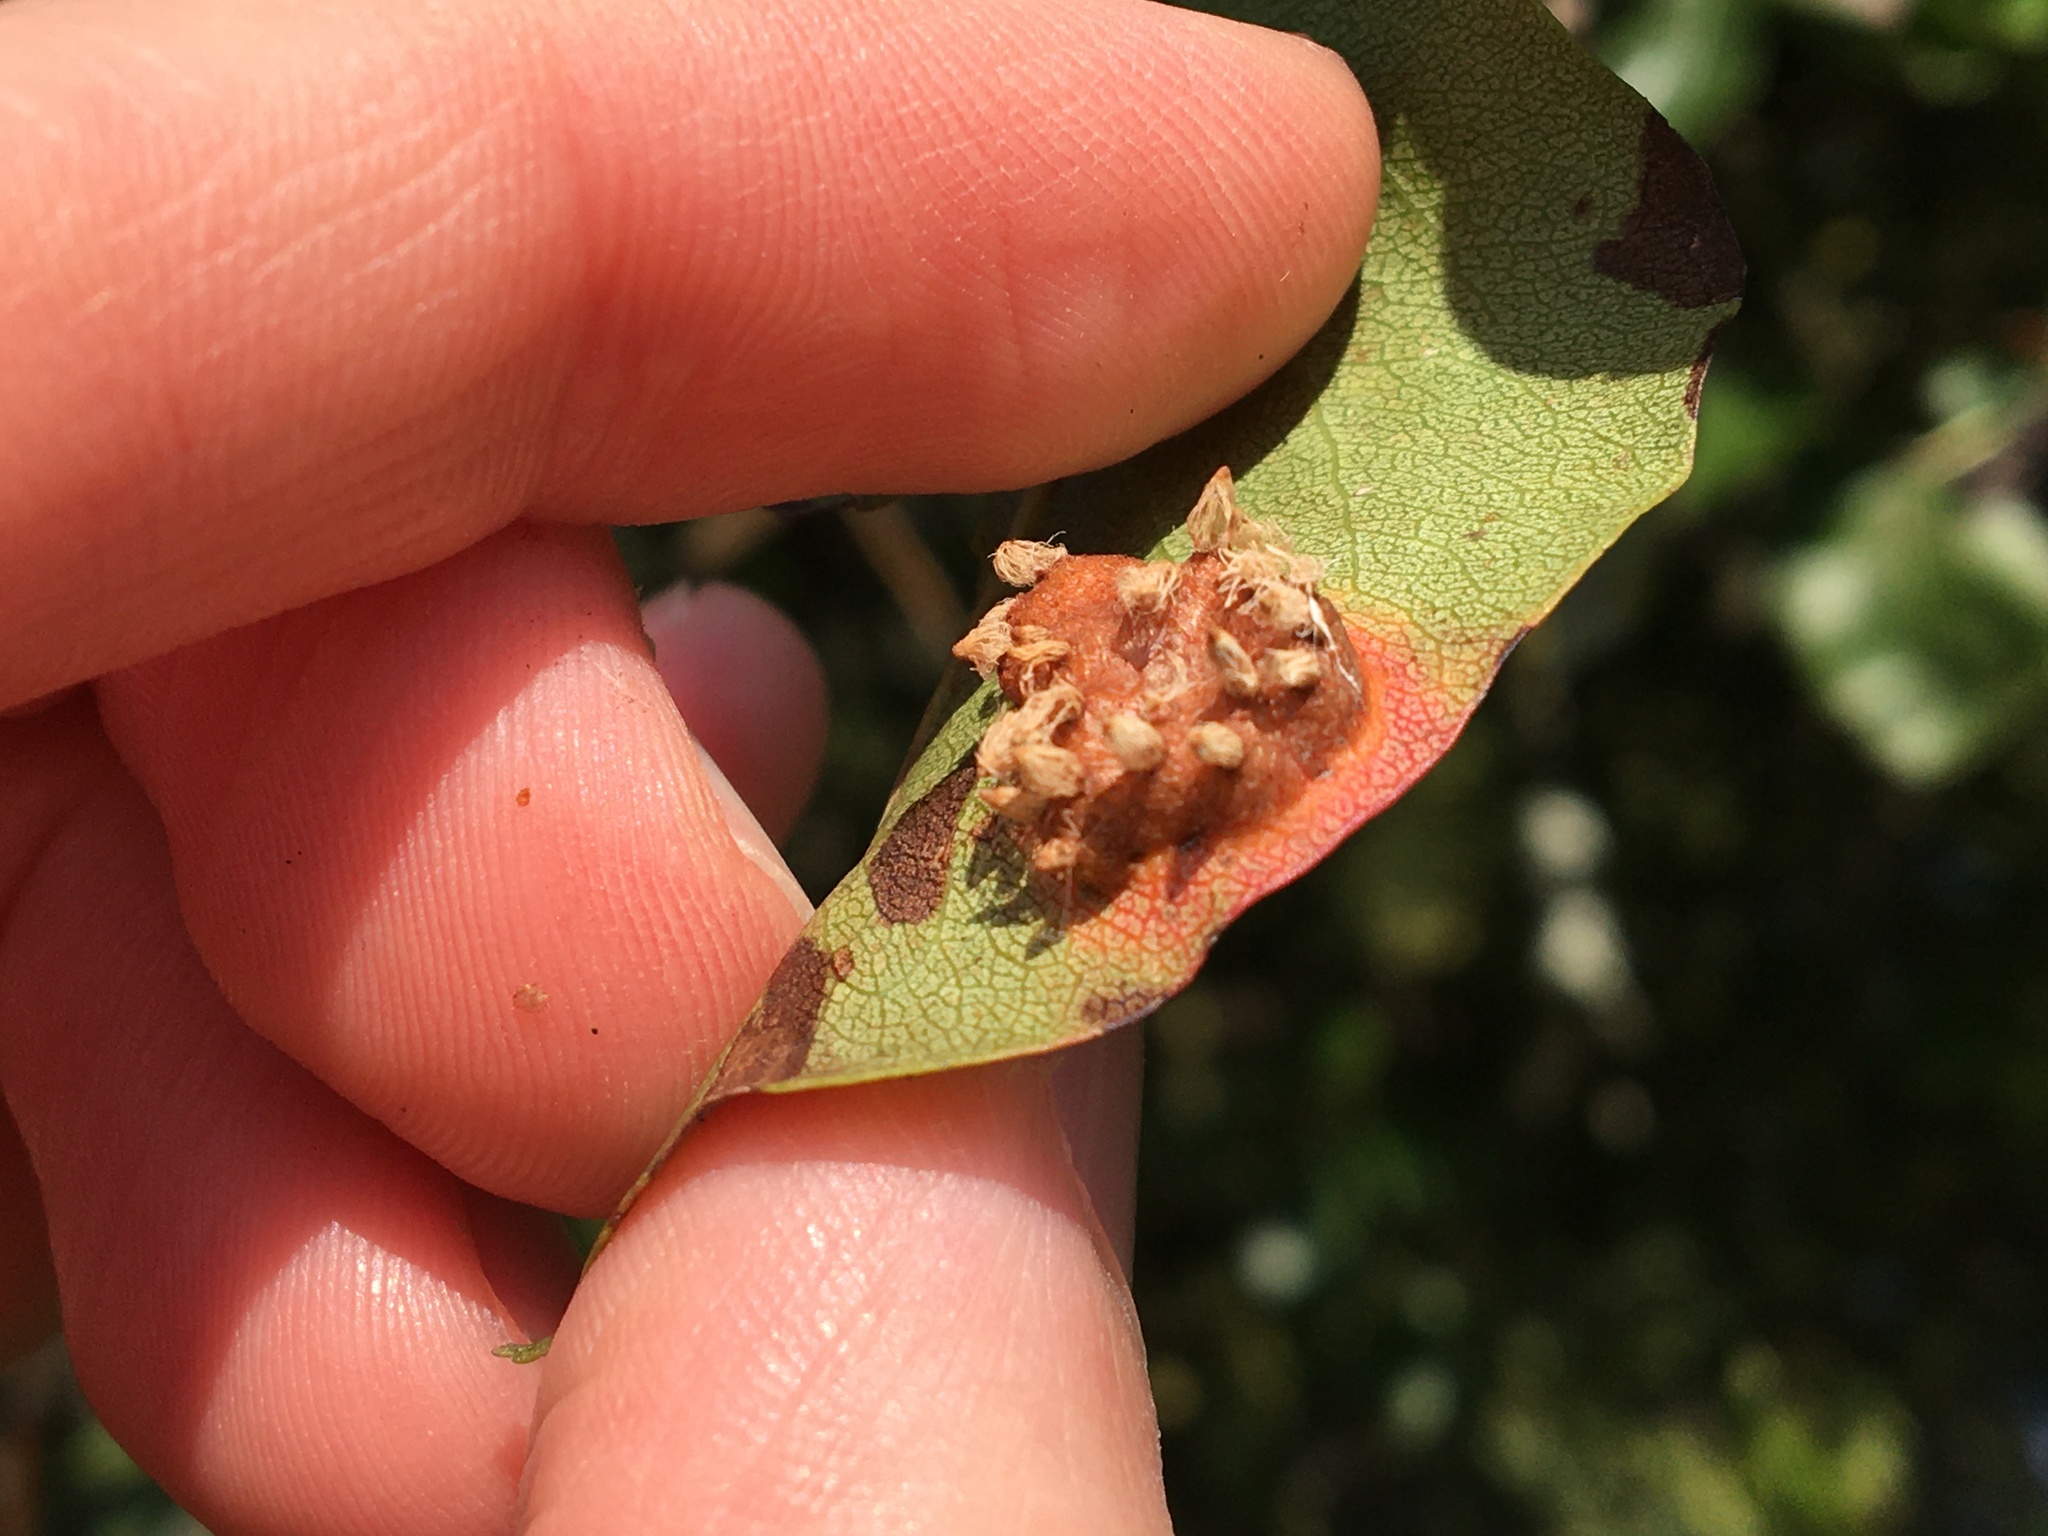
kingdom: Fungi
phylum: Basidiomycota
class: Pucciniomycetes
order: Pucciniales
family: Gymnosporangiaceae
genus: Gymnosporangium
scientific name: Gymnosporangium sabinae
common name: Pear trellis rust fungus
